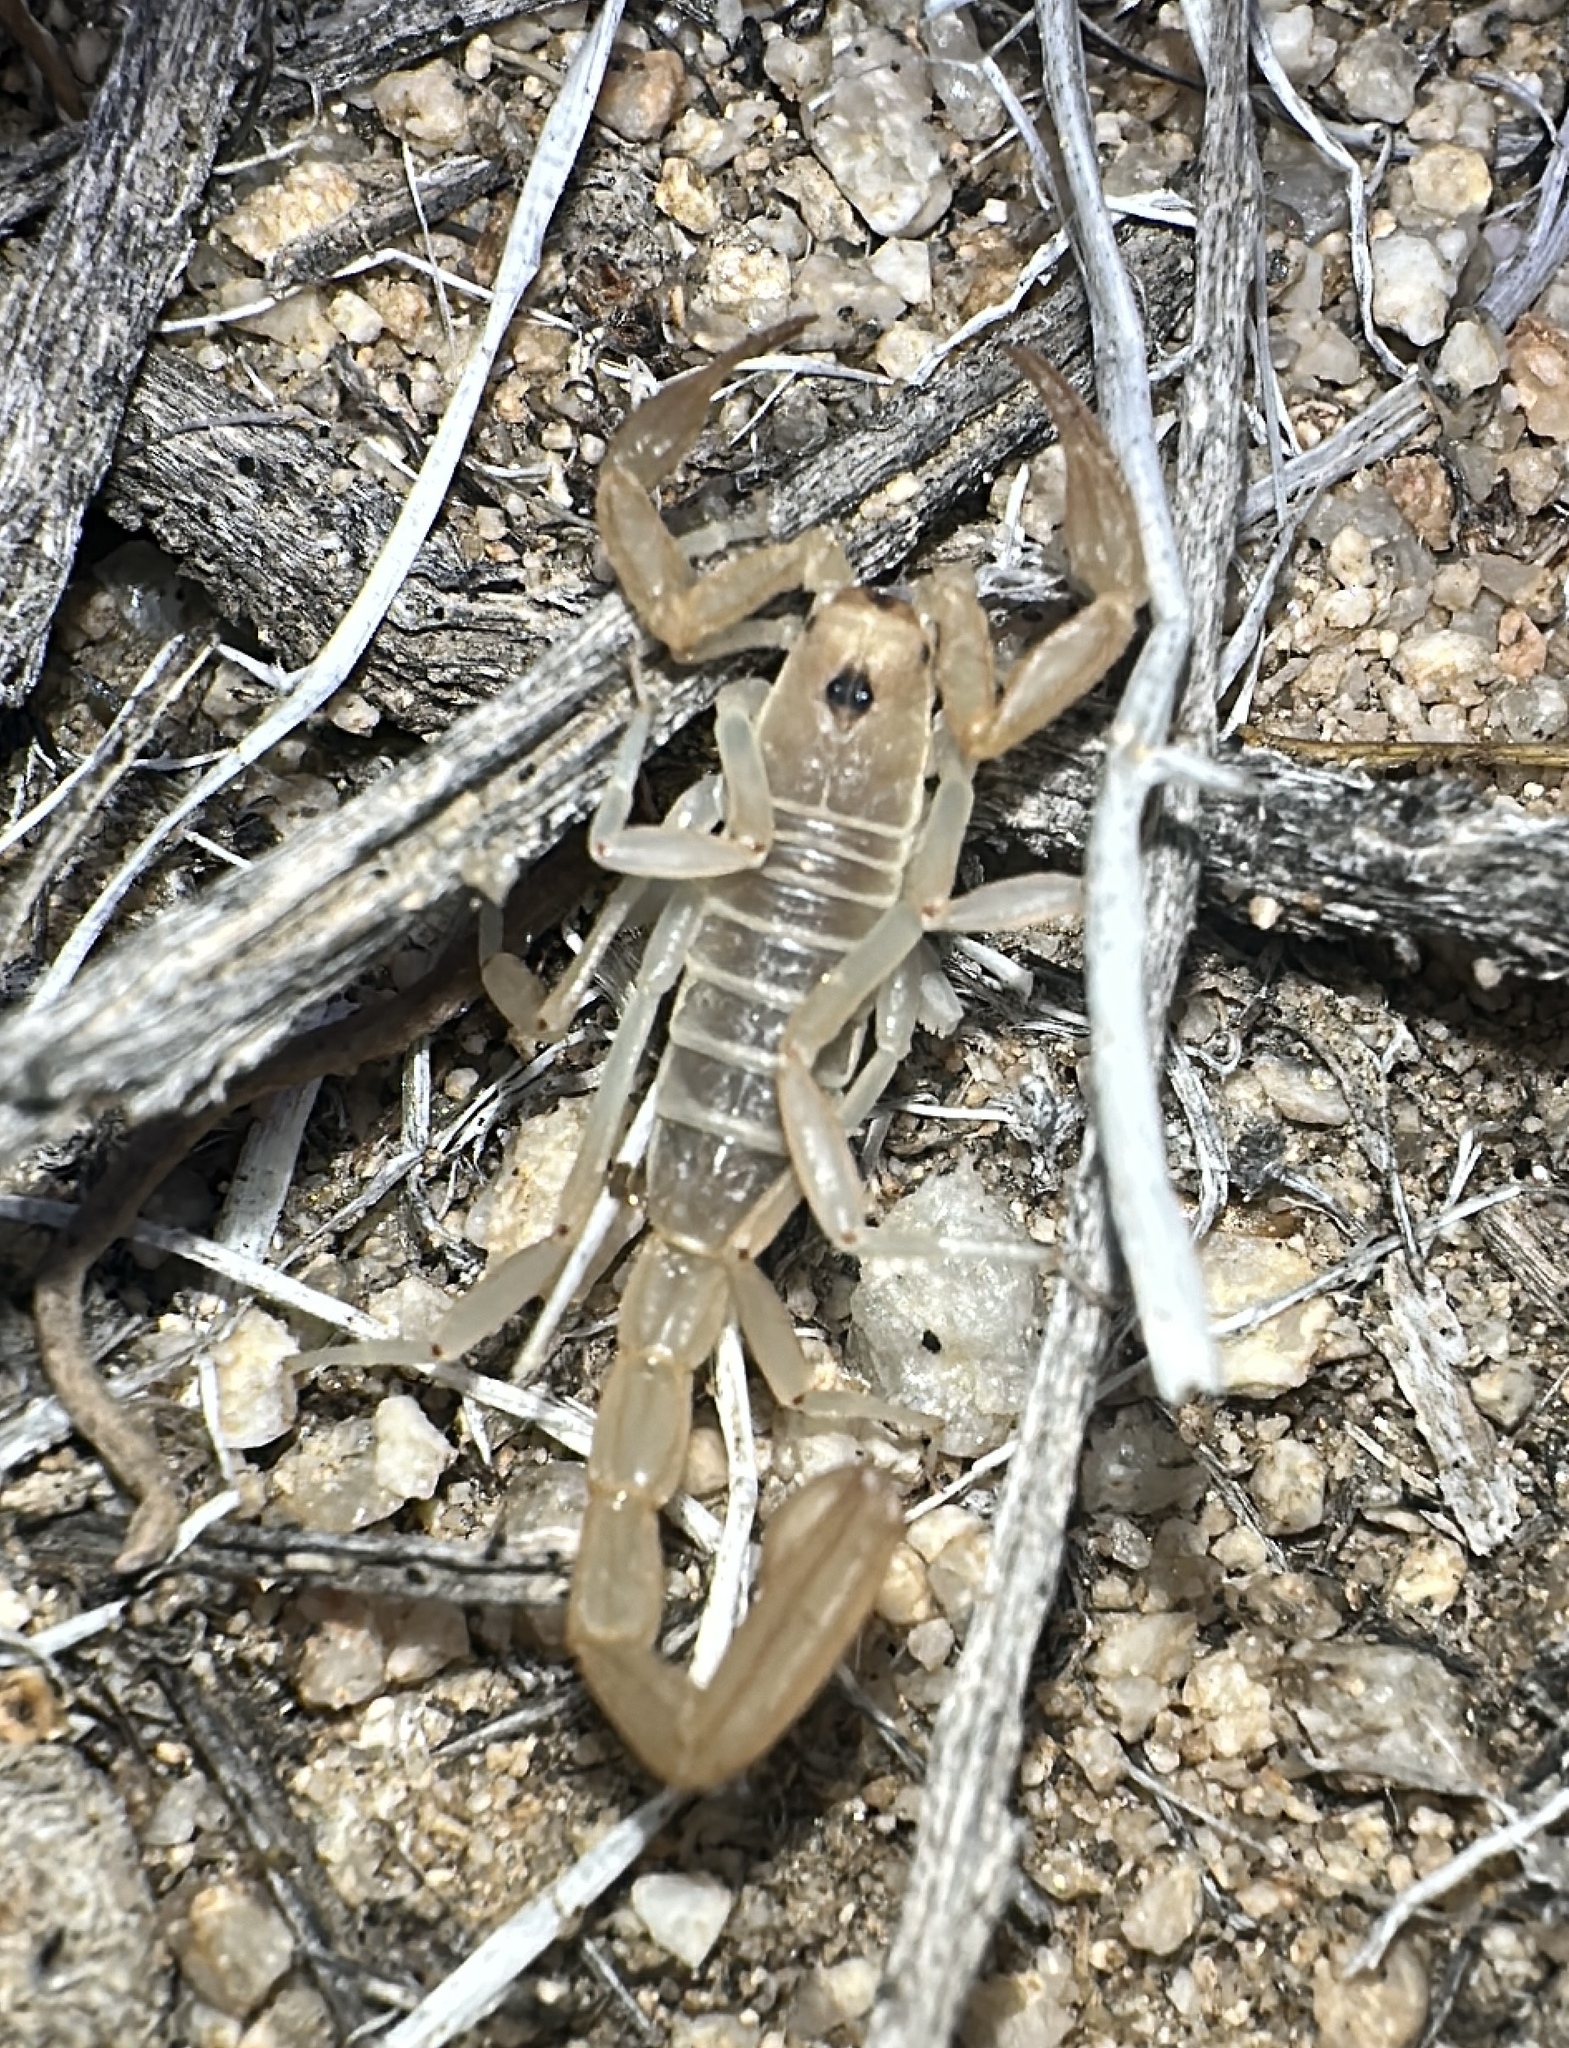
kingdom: Animalia
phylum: Arthropoda
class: Arachnida
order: Scorpiones
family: Vaejovidae
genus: Paruroctonus
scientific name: Paruroctonus becki
